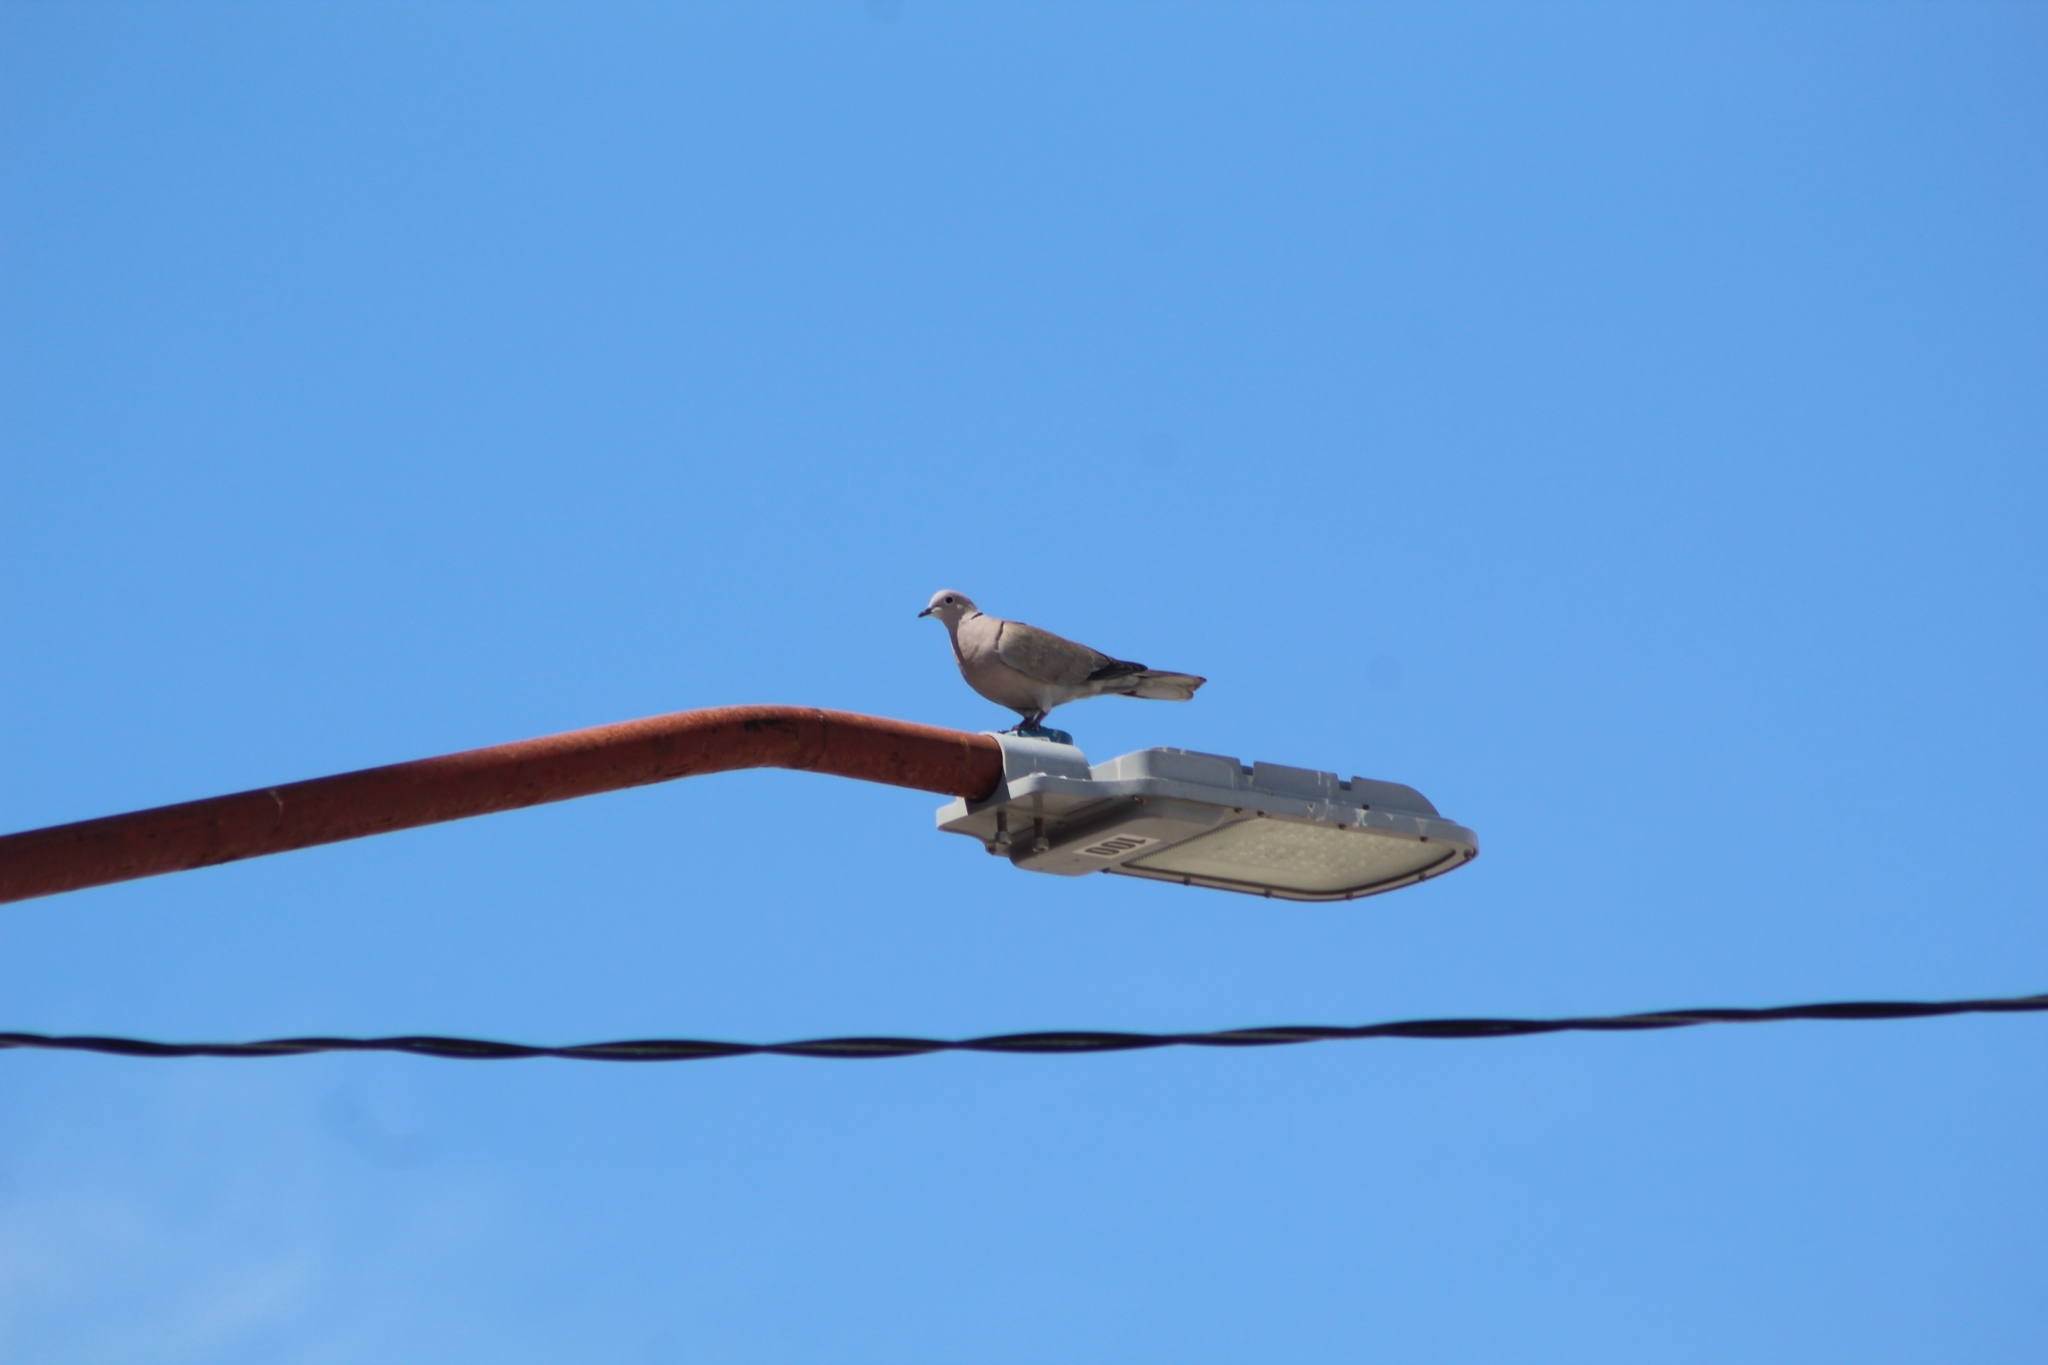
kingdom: Animalia
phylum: Chordata
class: Aves
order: Columbiformes
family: Columbidae
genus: Streptopelia
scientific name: Streptopelia decaocto
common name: Eurasian collared dove
